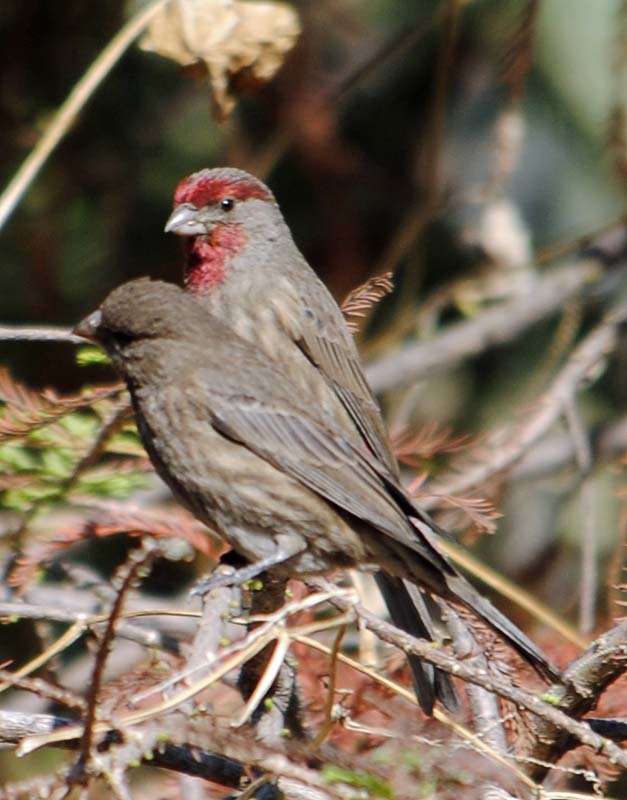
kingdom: Animalia
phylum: Chordata
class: Aves
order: Passeriformes
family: Fringillidae
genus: Haemorhous
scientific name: Haemorhous mexicanus
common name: House finch
